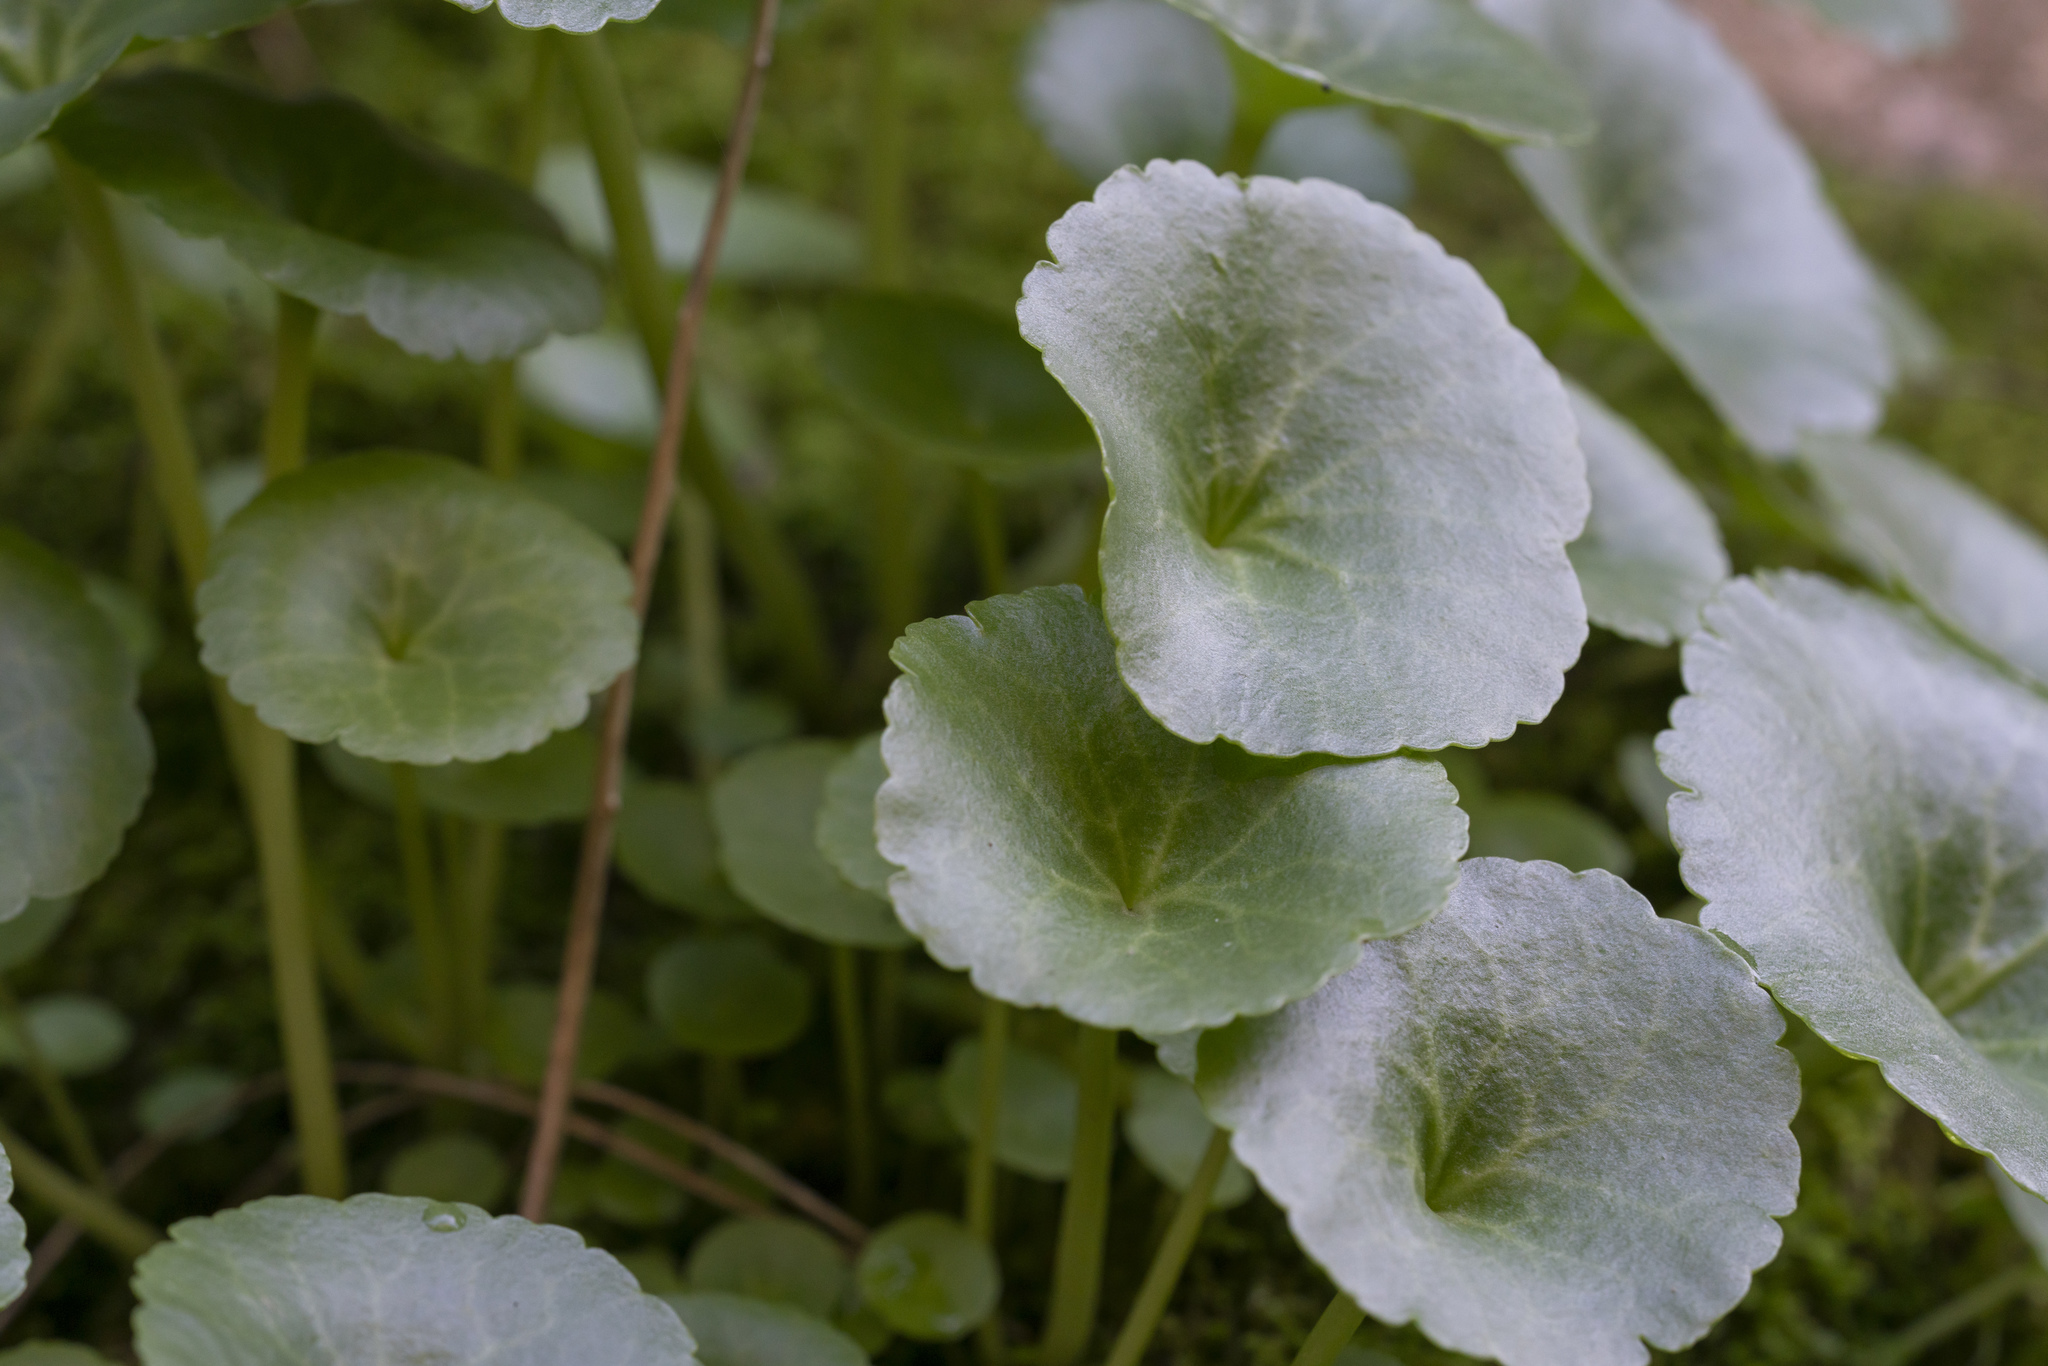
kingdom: Plantae
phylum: Tracheophyta
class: Magnoliopsida
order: Saxifragales
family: Crassulaceae
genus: Umbilicus
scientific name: Umbilicus
